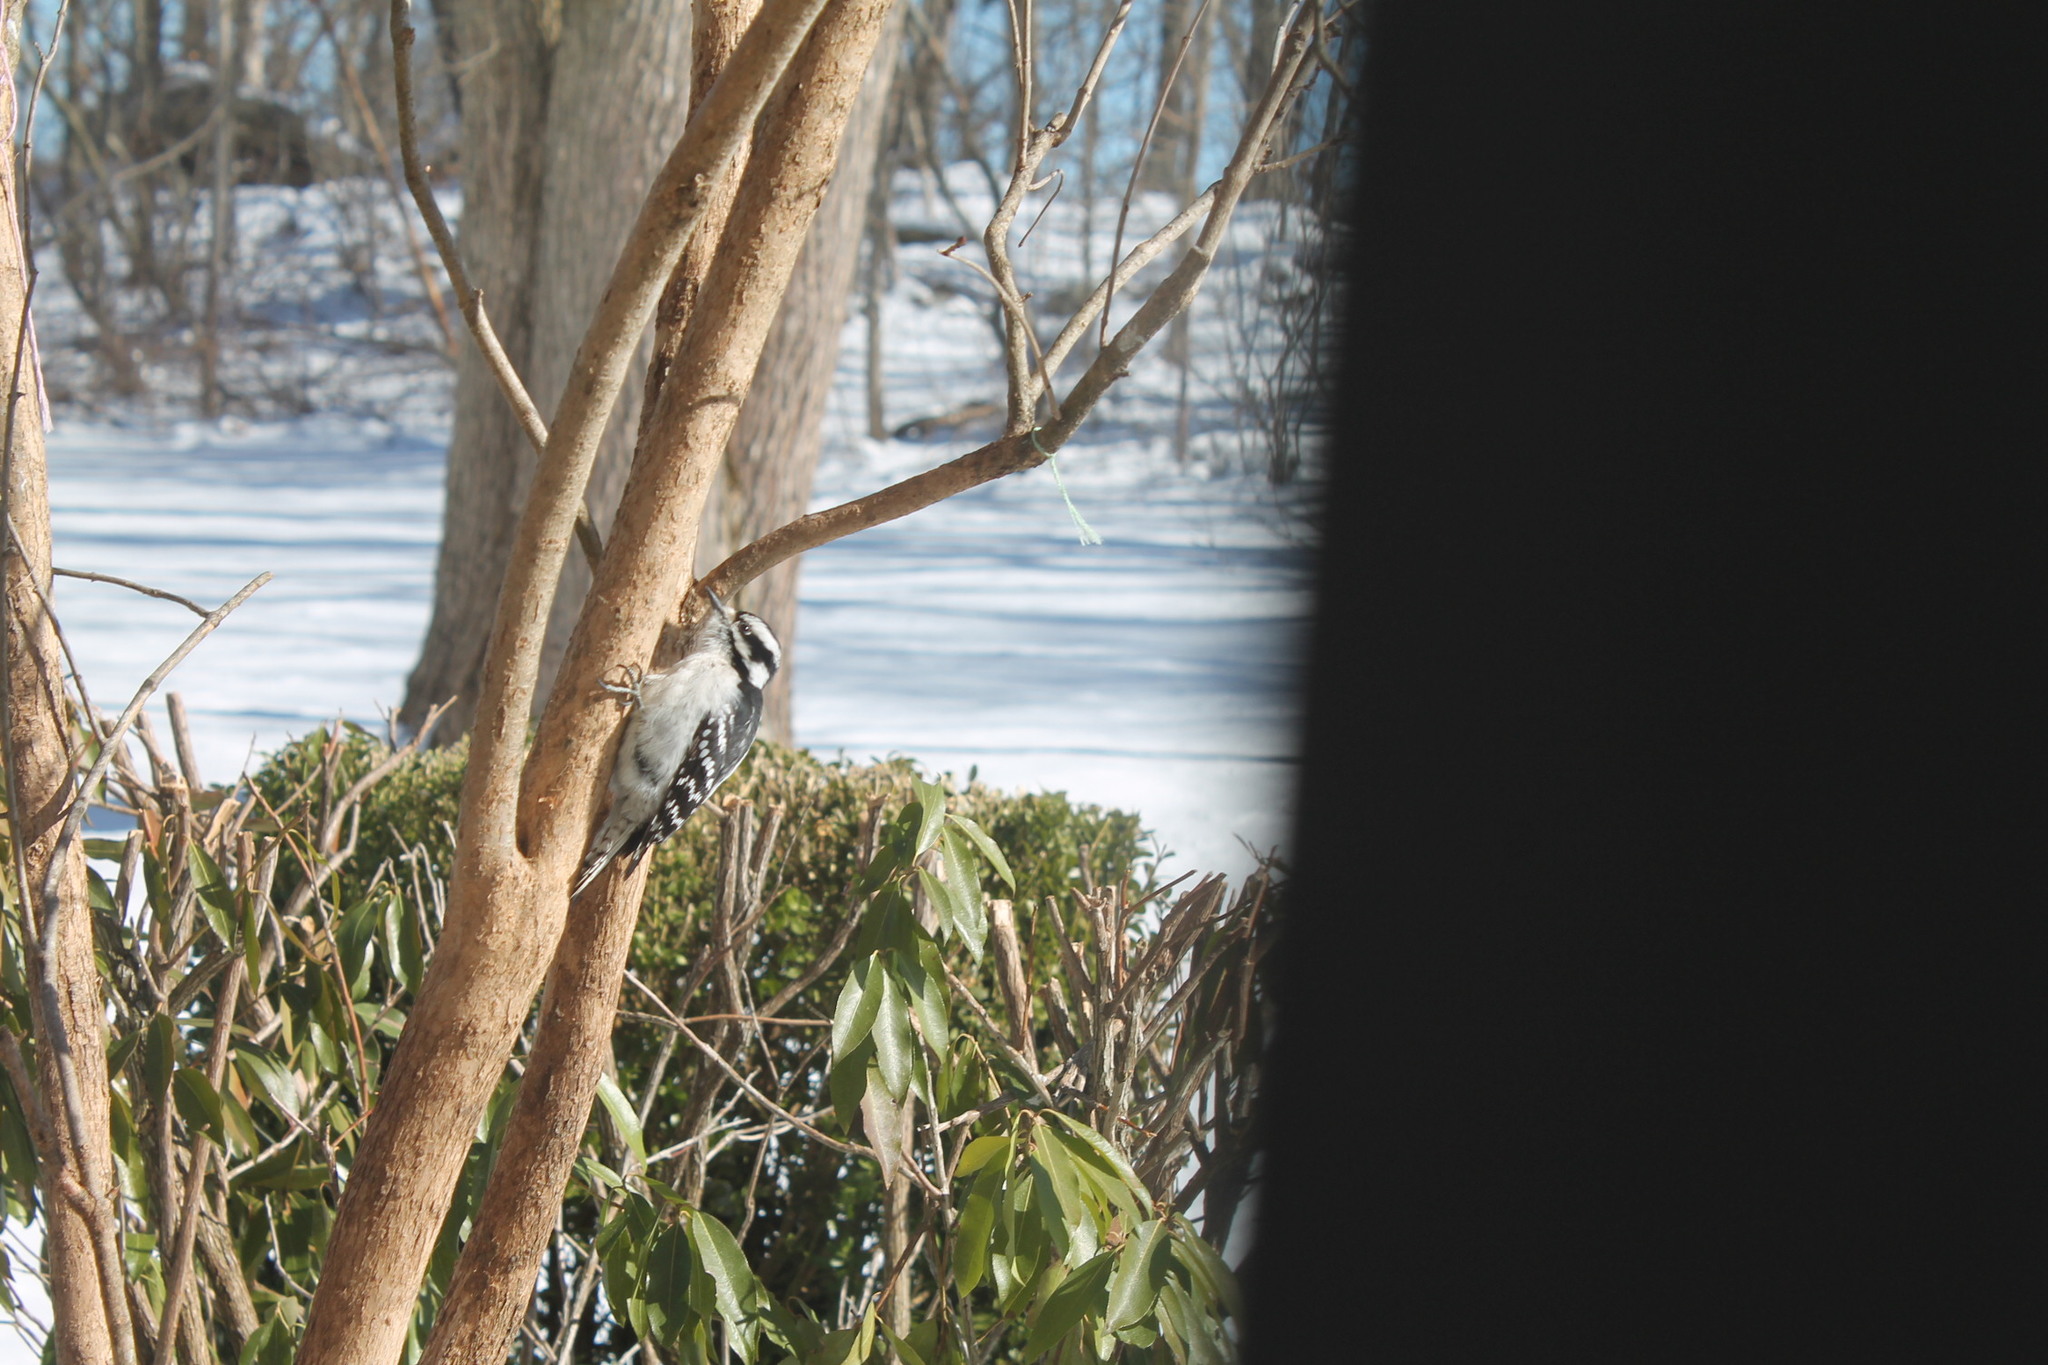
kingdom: Animalia
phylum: Chordata
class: Aves
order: Piciformes
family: Picidae
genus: Dryobates
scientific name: Dryobates pubescens
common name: Downy woodpecker
